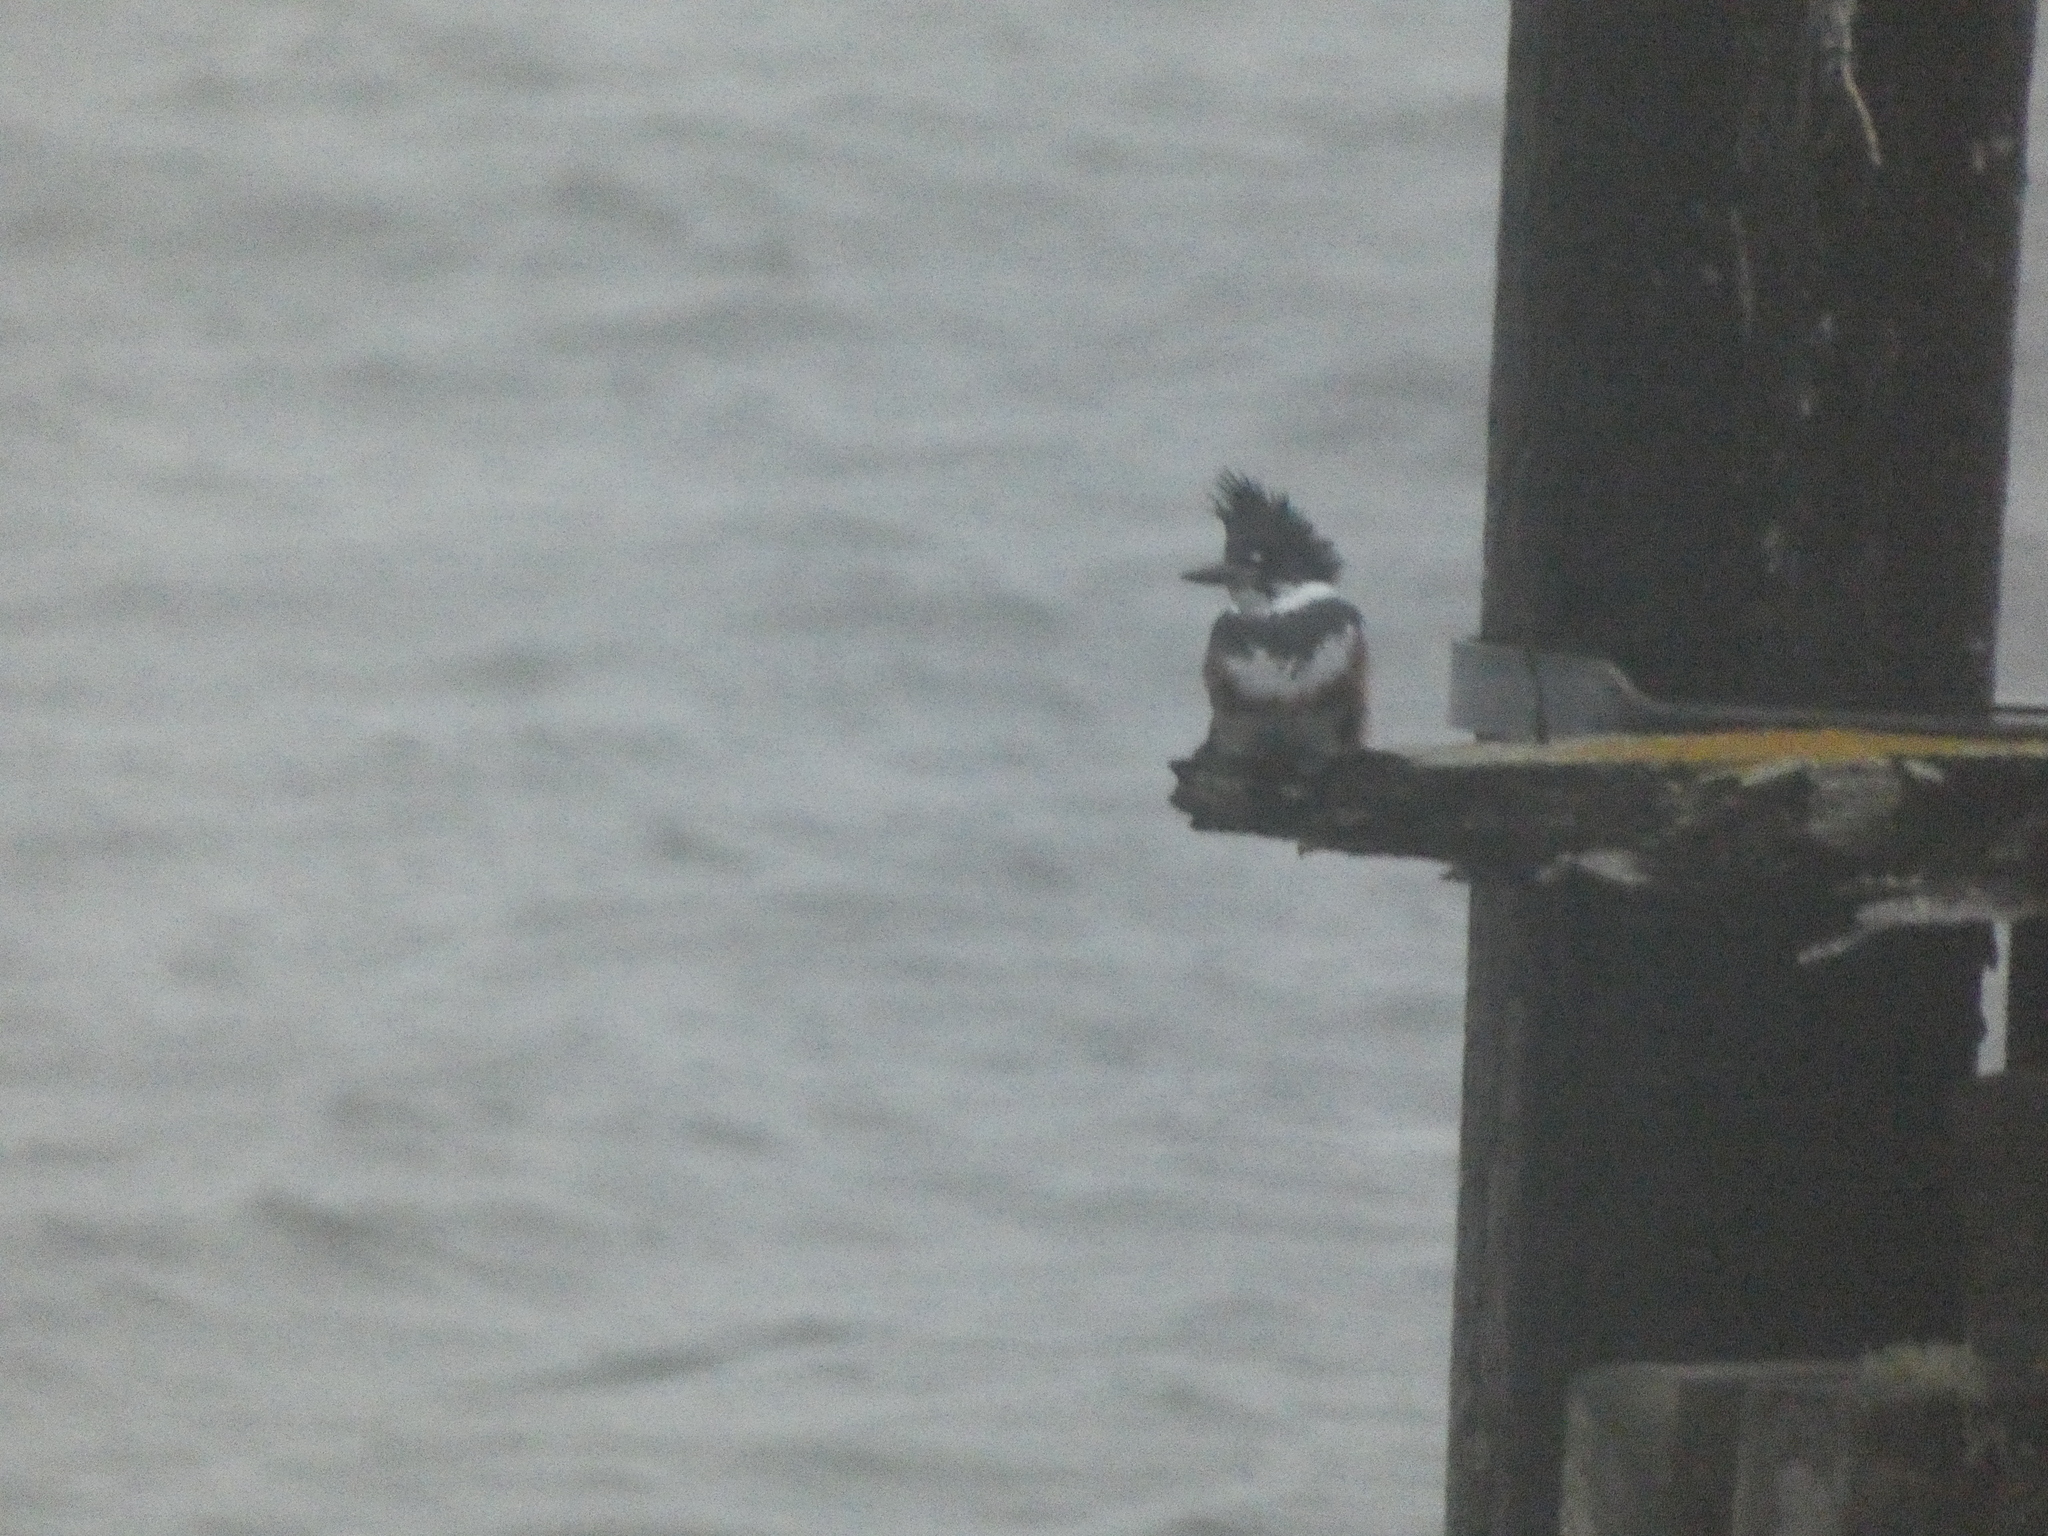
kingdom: Animalia
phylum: Chordata
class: Aves
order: Coraciiformes
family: Alcedinidae
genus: Megaceryle
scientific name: Megaceryle alcyon
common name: Belted kingfisher
